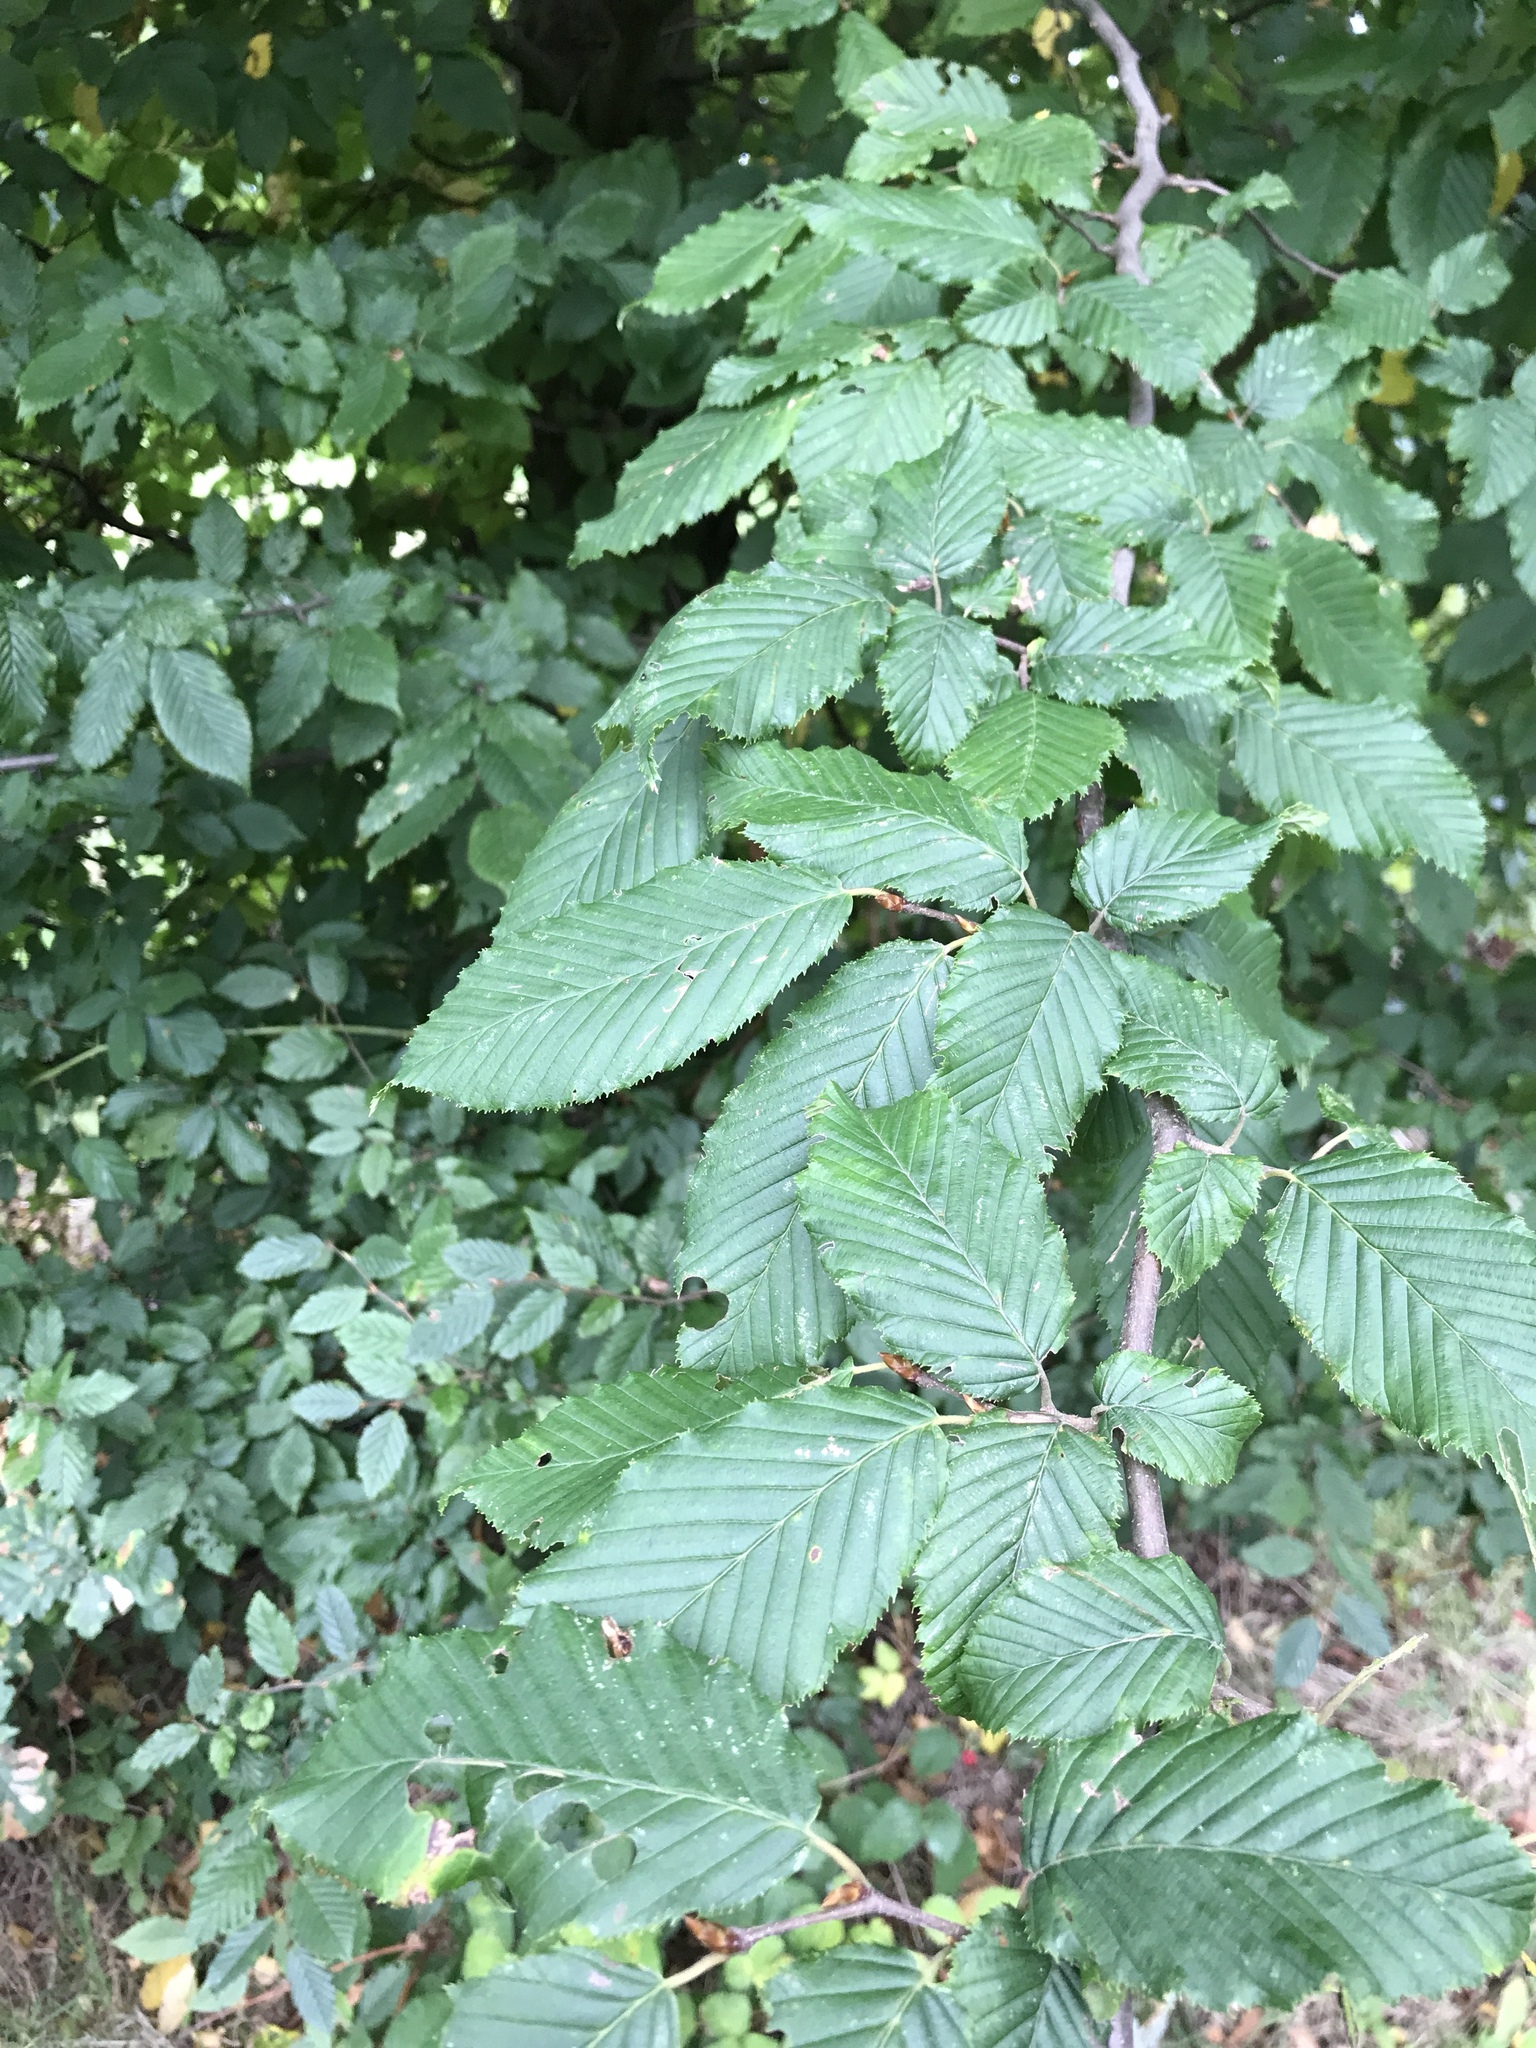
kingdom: Plantae
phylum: Tracheophyta
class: Magnoliopsida
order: Fagales
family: Betulaceae
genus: Carpinus
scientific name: Carpinus betulus
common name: Hornbeam
